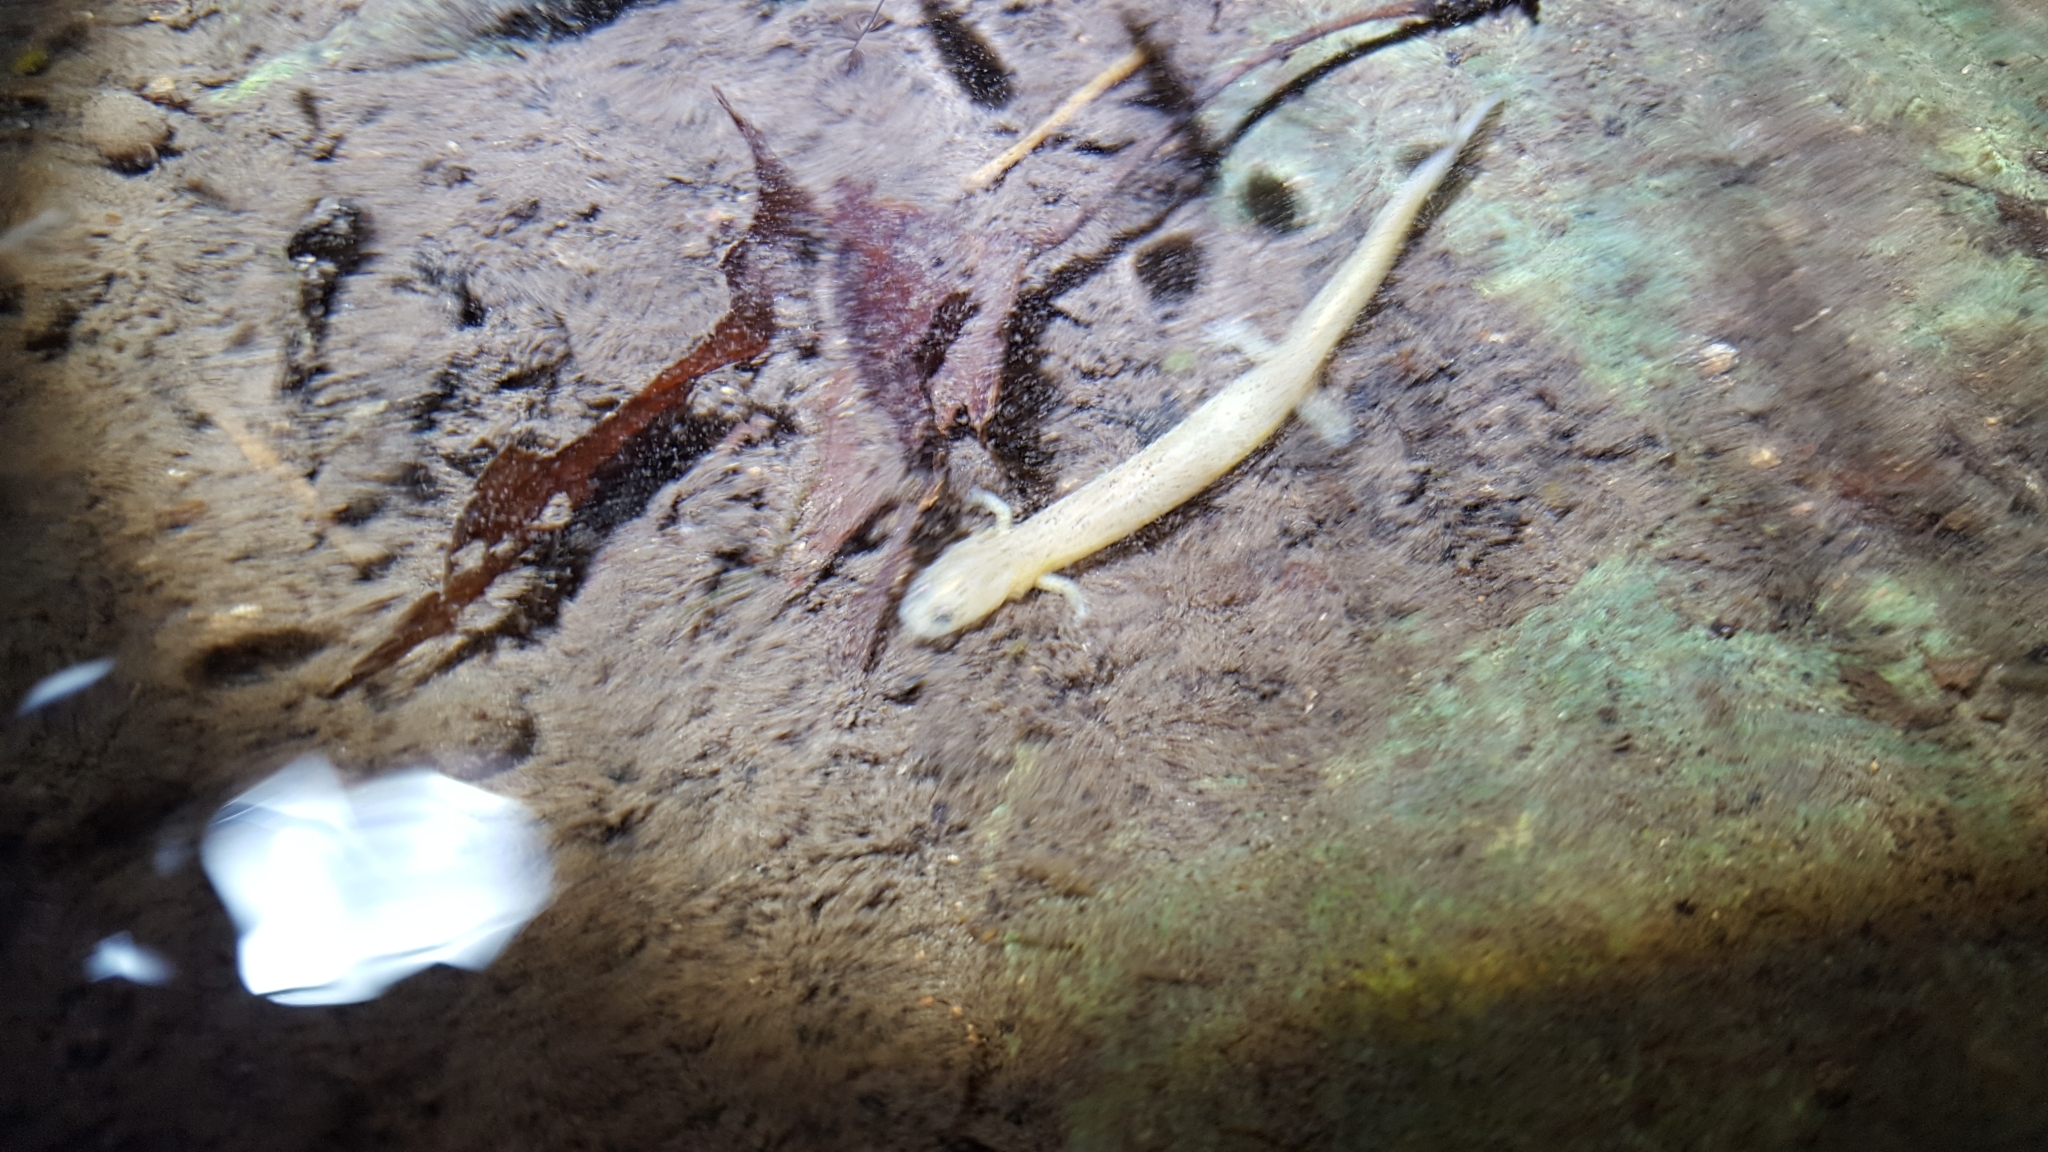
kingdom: Animalia
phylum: Chordata
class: Amphibia
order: Caudata
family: Plethodontidae
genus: Eurycea
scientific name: Eurycea tynerensis
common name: Oklahoma salamander
